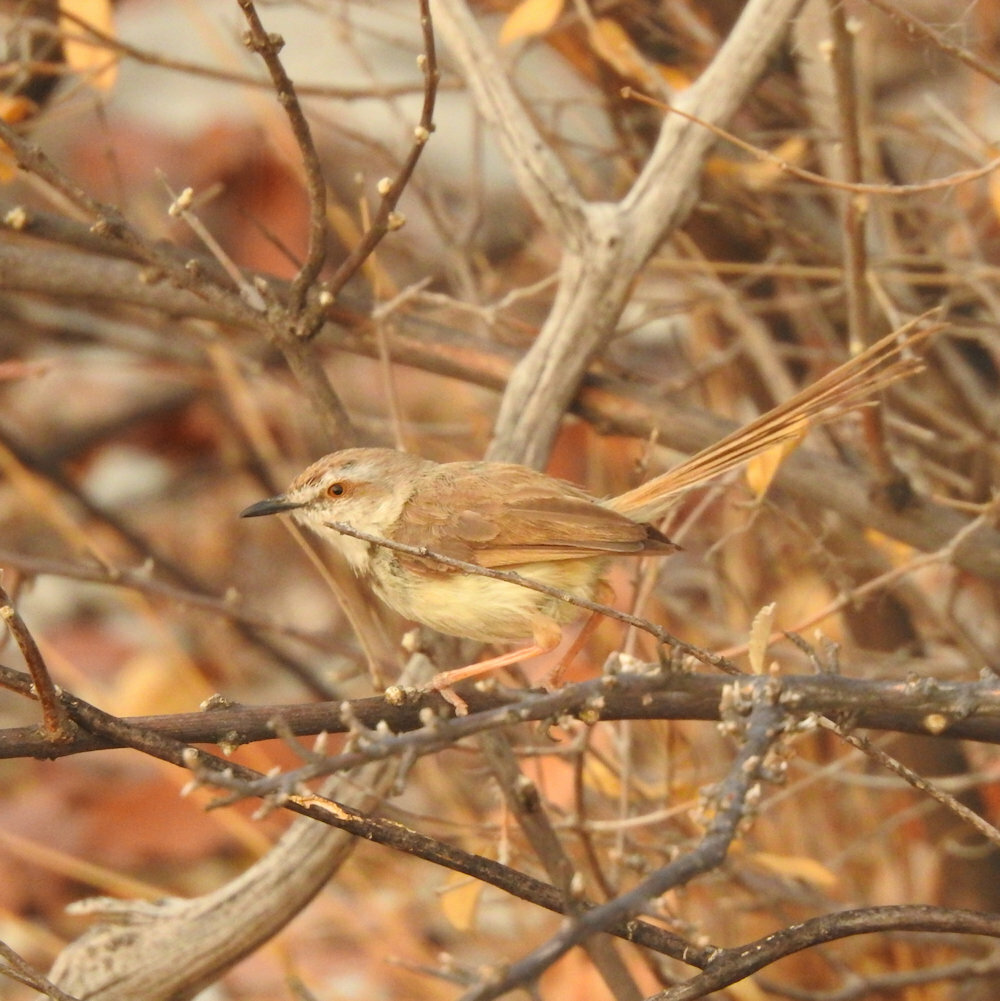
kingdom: Animalia
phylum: Chordata
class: Aves
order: Passeriformes
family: Cisticolidae
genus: Prinia
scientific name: Prinia flavicans
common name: Black-chested prinia
